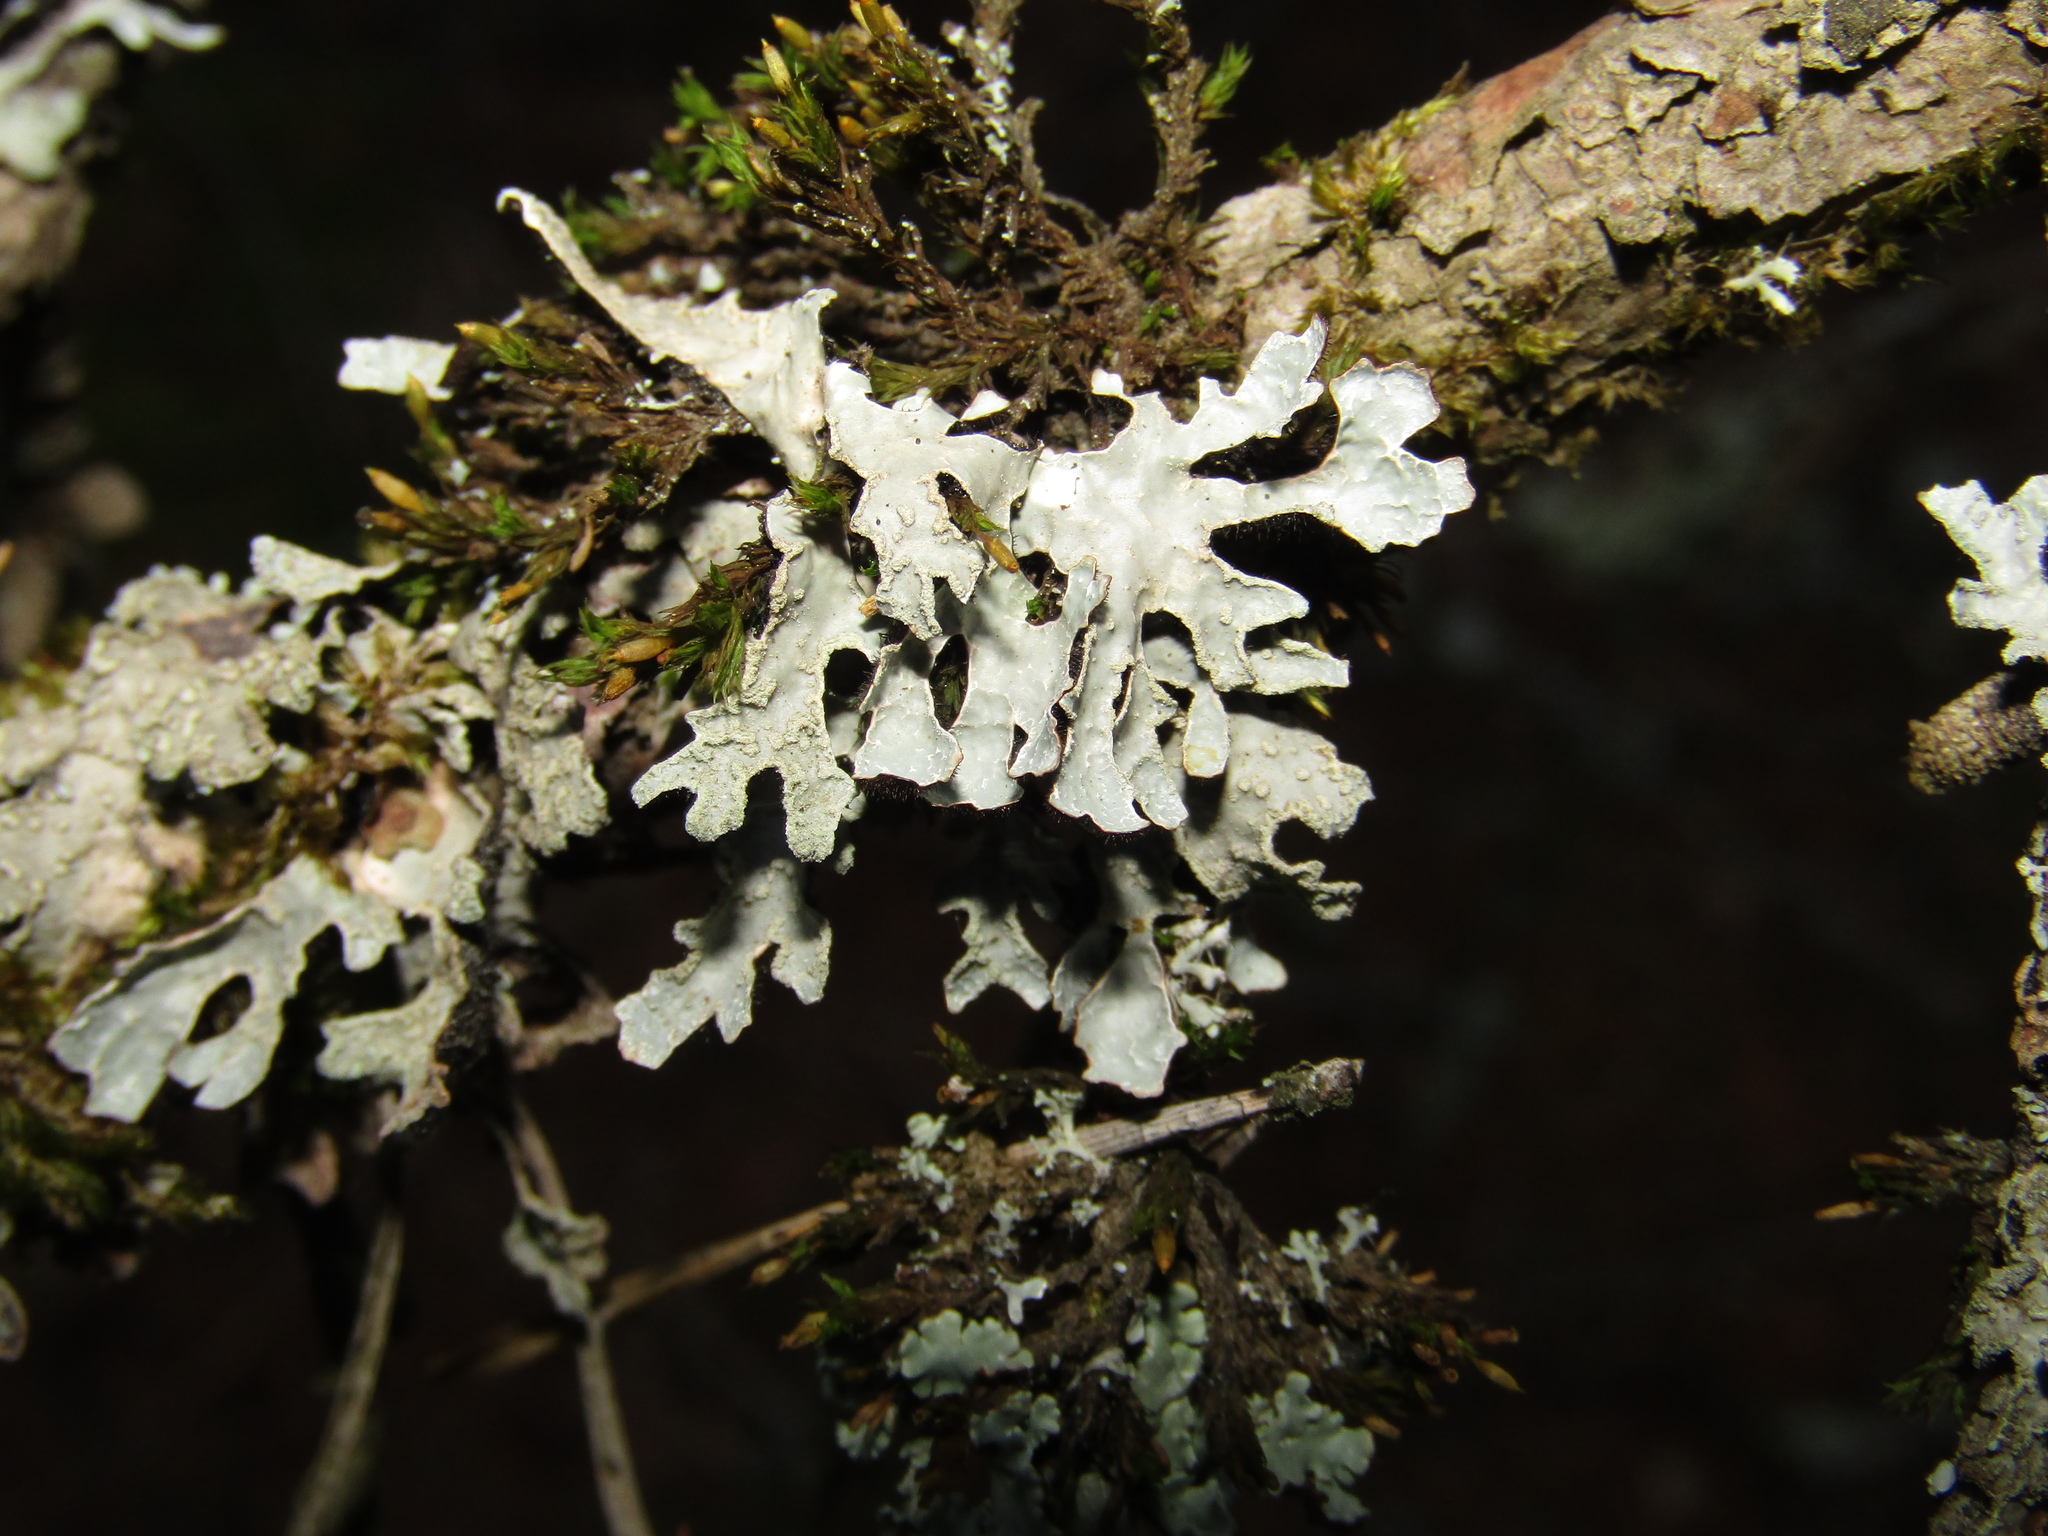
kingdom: Fungi
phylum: Ascomycota
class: Lecanoromycetes
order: Lecanorales
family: Parmeliaceae
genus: Parmelia
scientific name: Parmelia sulcata
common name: Netted shield lichen
